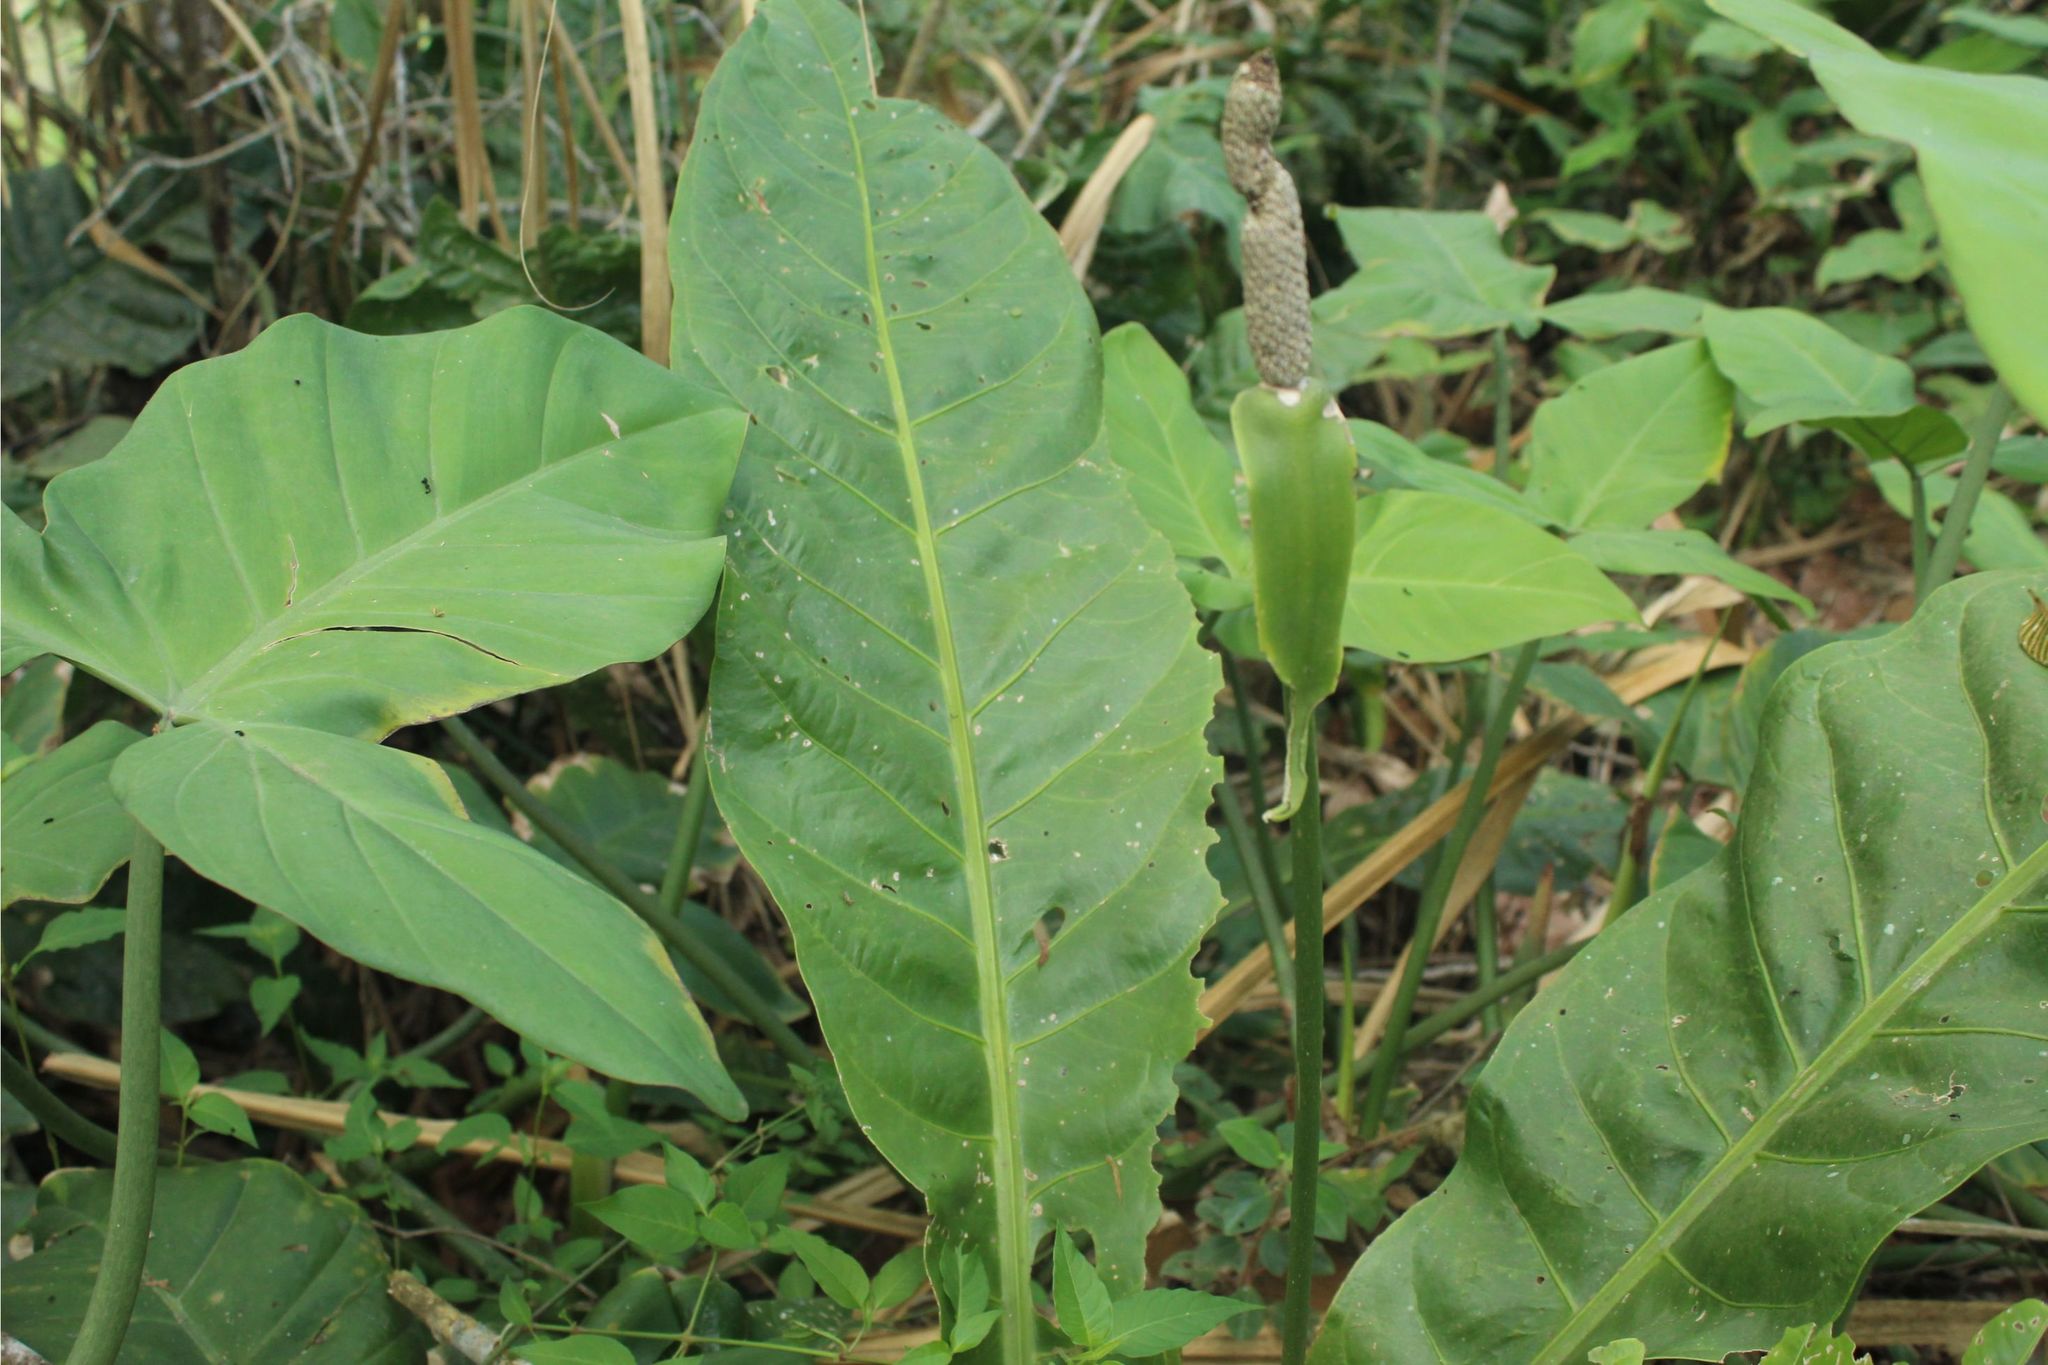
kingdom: Plantae
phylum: Tracheophyta
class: Liliopsida
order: Alismatales
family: Araceae
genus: Anthurium
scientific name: Anthurium caucavallense
